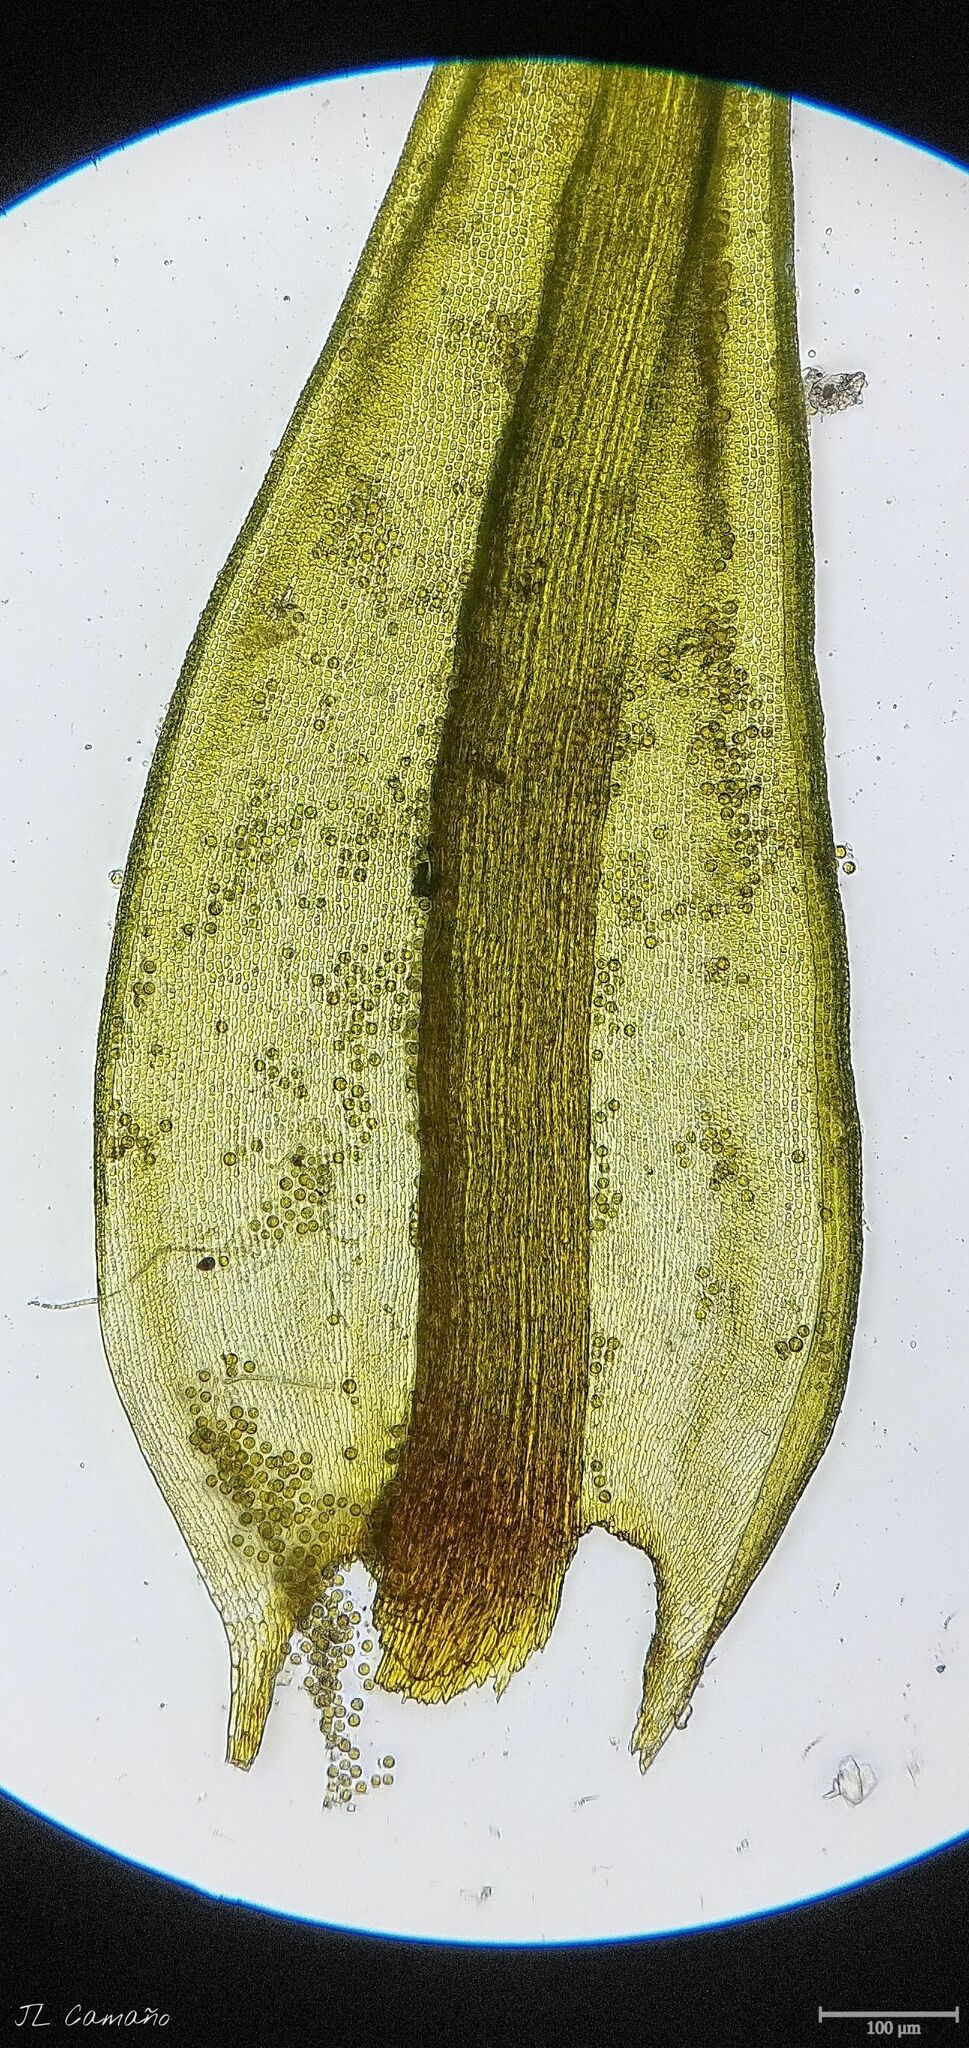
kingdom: Plantae
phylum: Bryophyta
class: Bryopsida
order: Grimmiales
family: Grimmiaceae
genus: Codriophorus
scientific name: Codriophorus aquaticus
